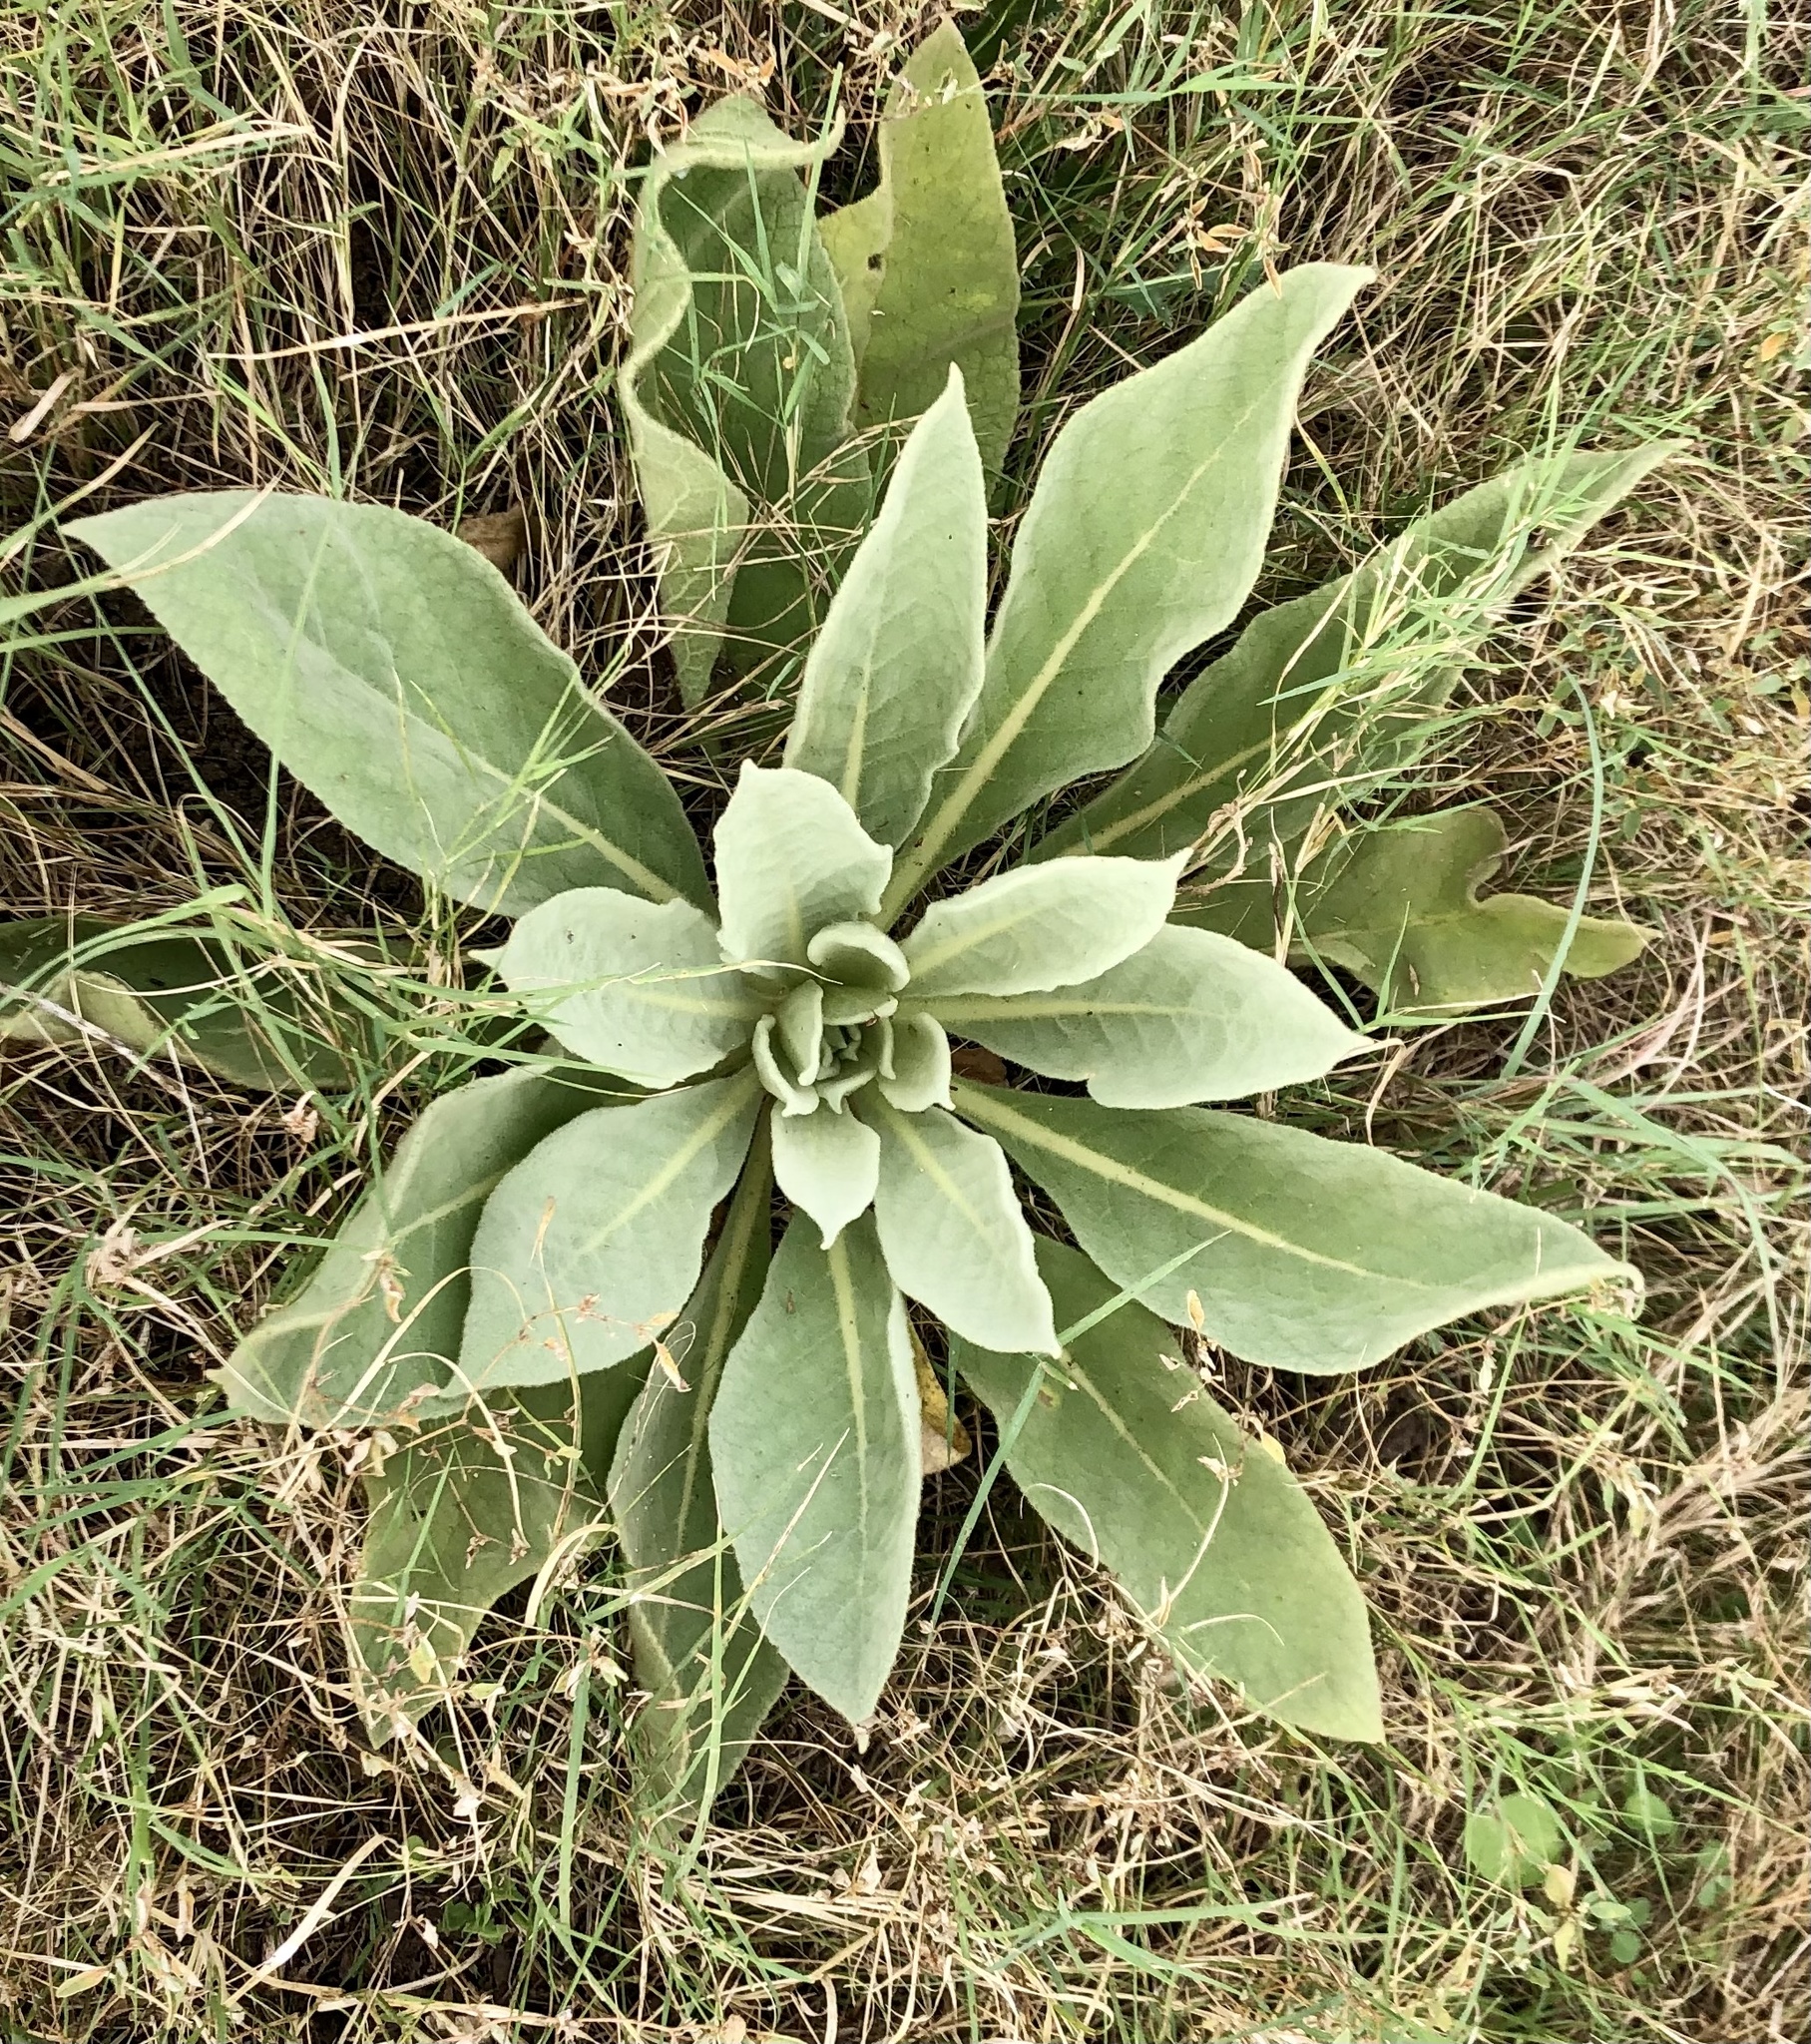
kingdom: Plantae
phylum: Tracheophyta
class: Magnoliopsida
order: Lamiales
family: Scrophulariaceae
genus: Verbascum
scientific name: Verbascum thapsus
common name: Common mullein
